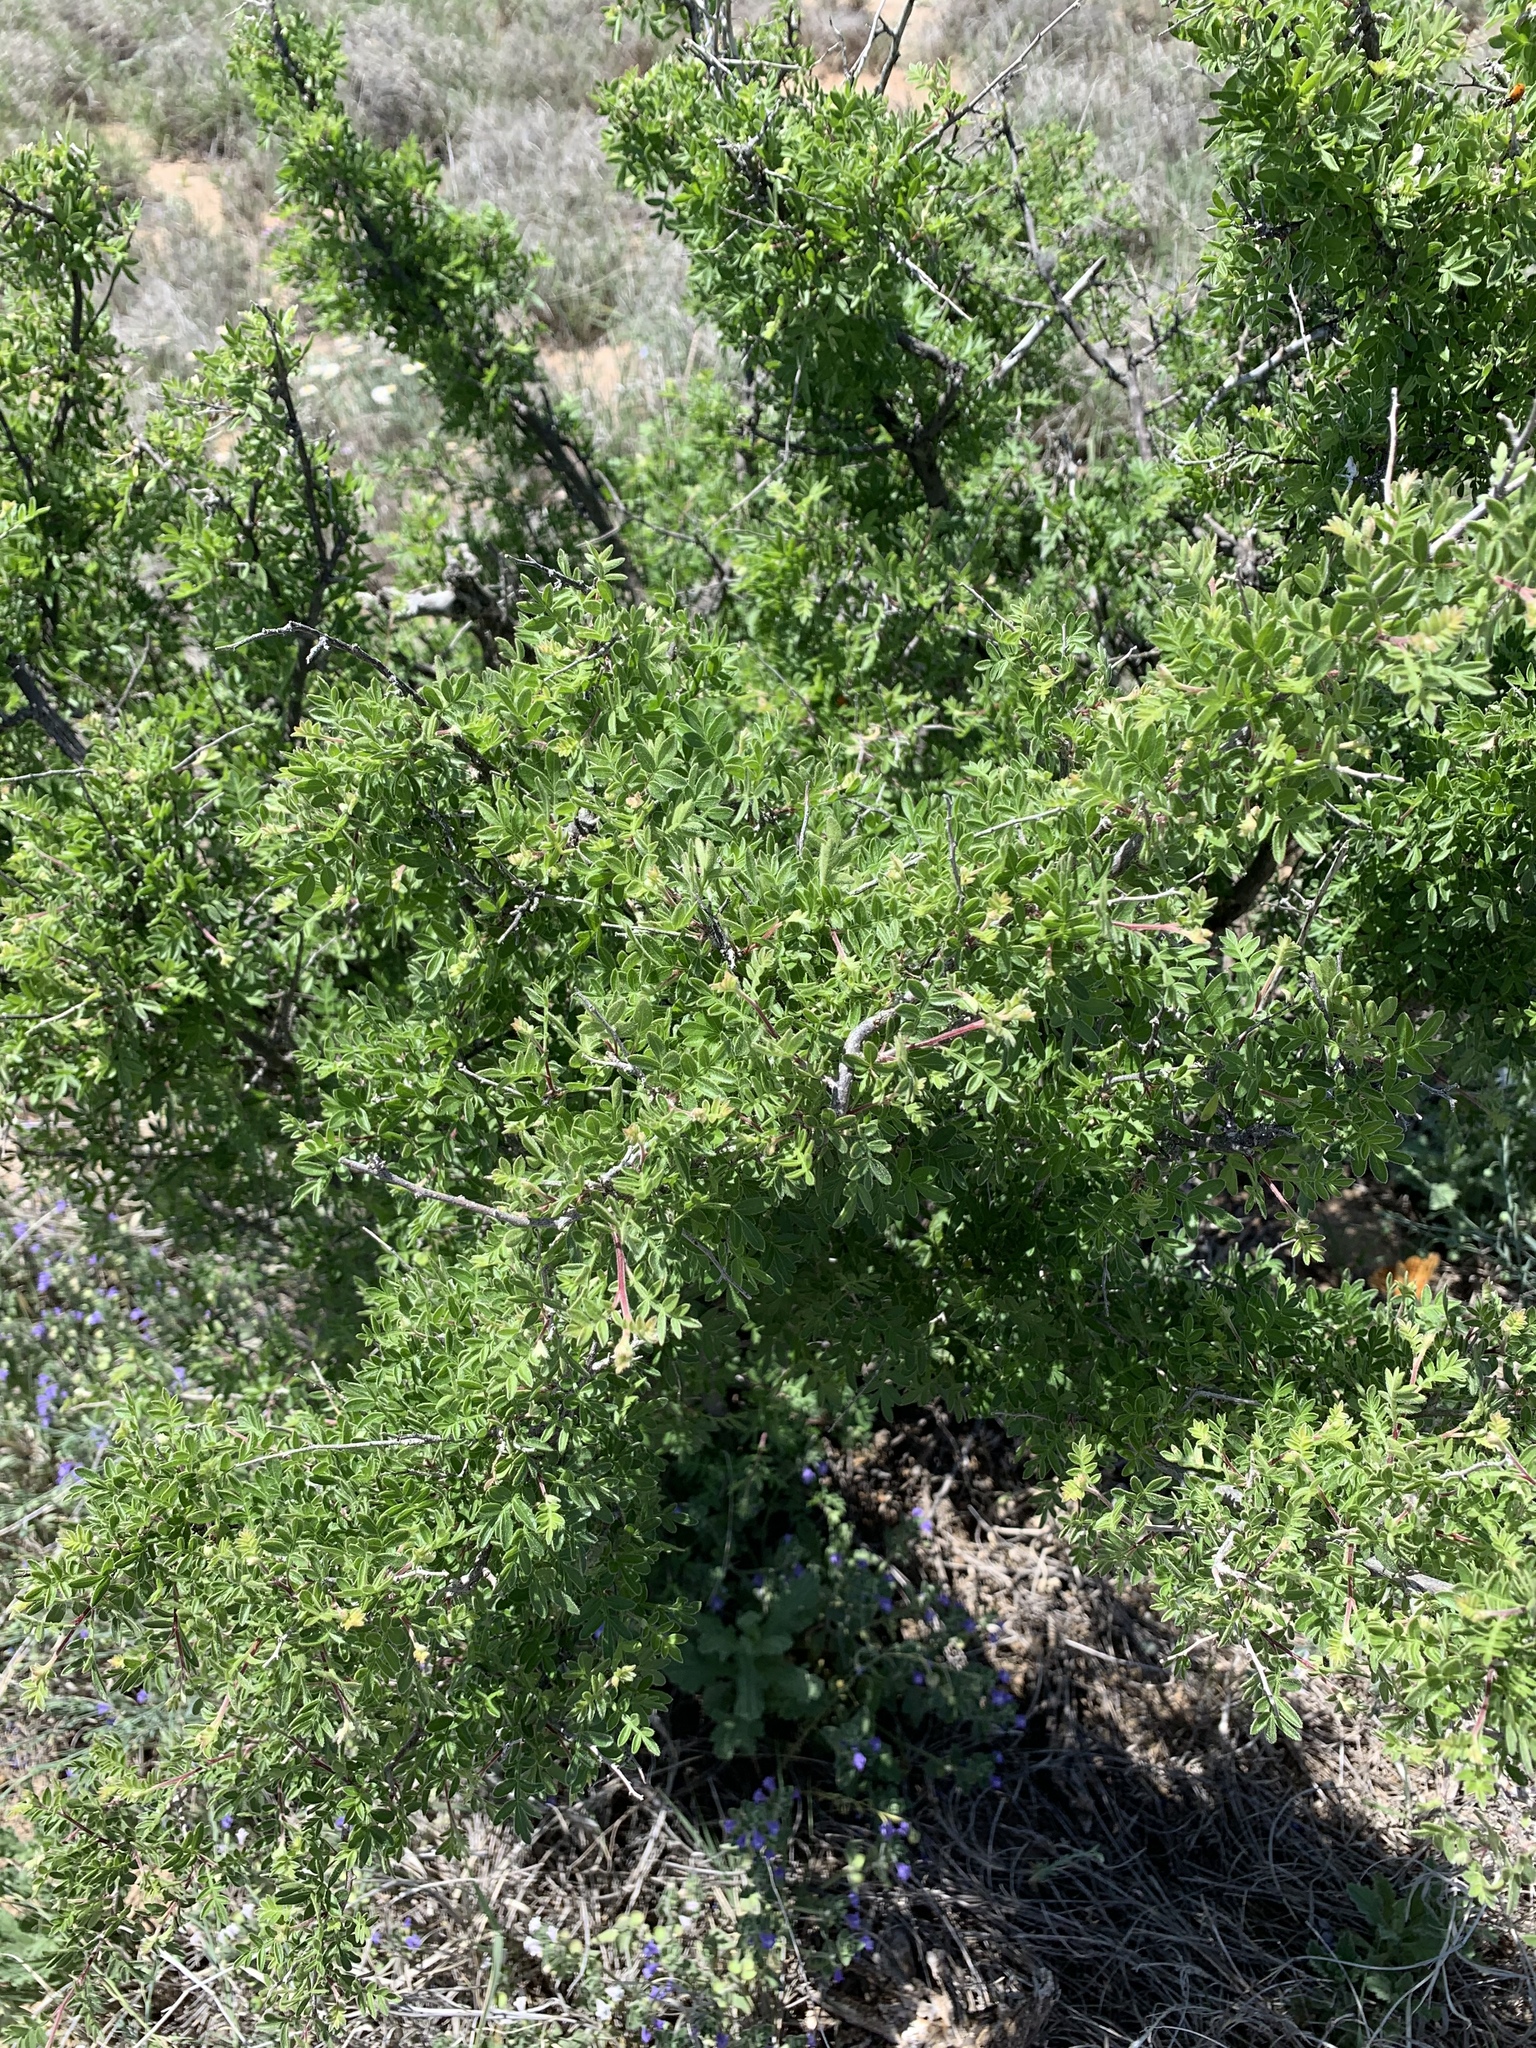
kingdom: Plantae
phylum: Tracheophyta
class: Magnoliopsida
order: Sapindales
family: Anacardiaceae
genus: Rhus
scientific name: Rhus microphylla
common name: Desert sumac
